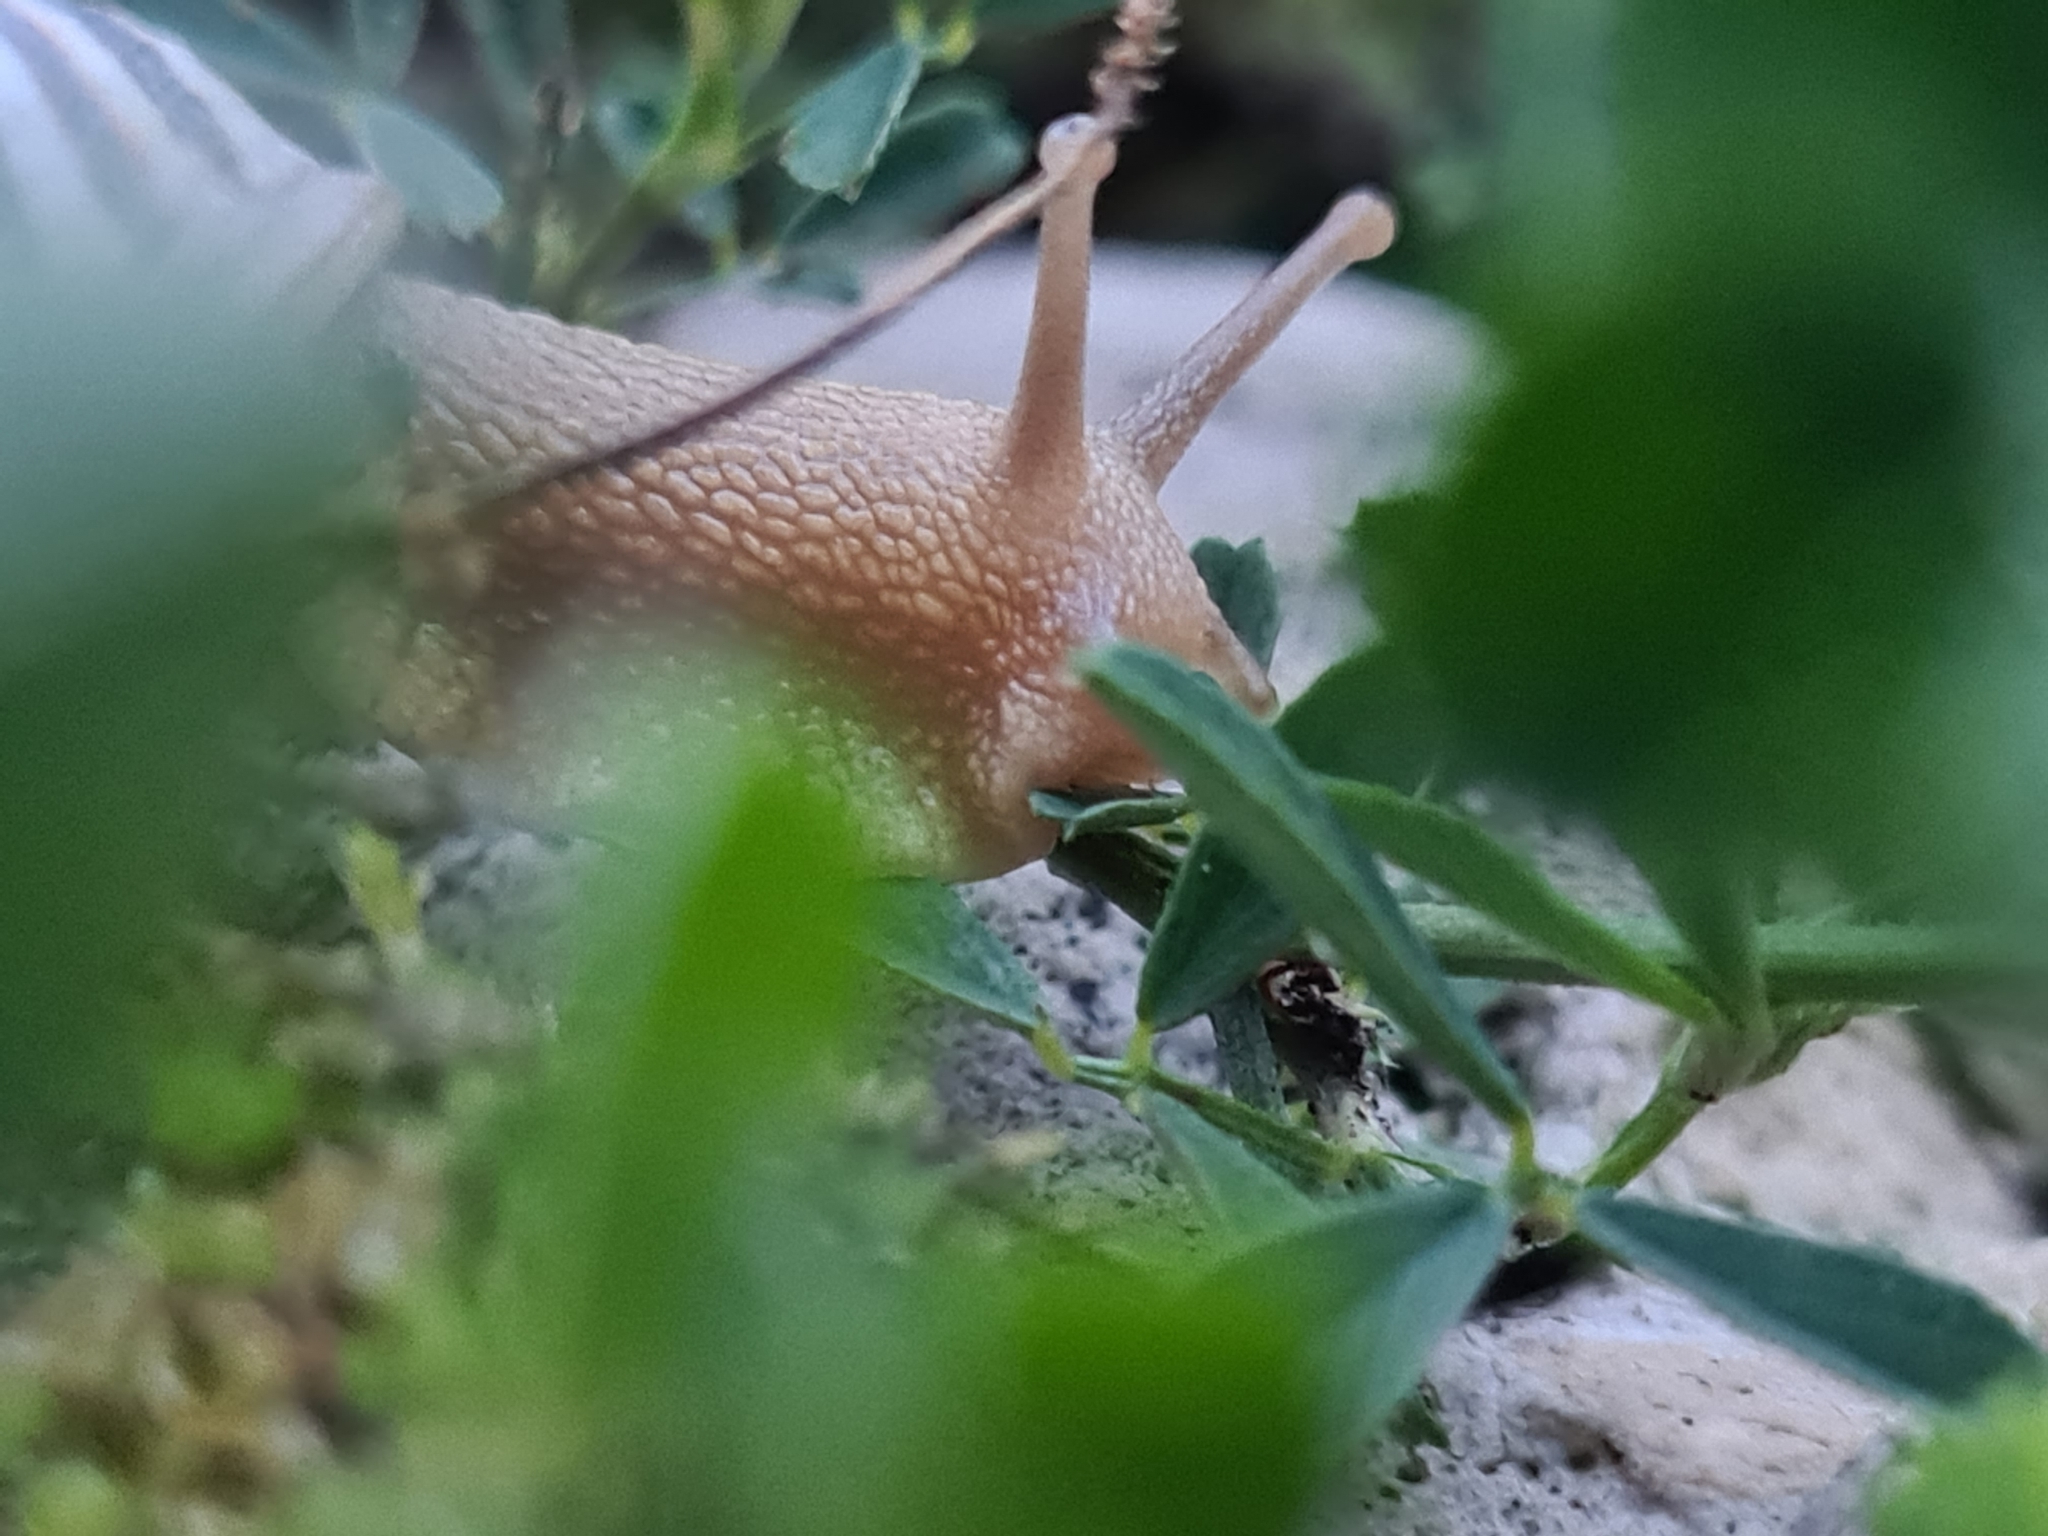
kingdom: Animalia
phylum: Mollusca
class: Gastropoda
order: Stylommatophora
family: Helicidae
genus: Caucasotachea
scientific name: Caucasotachea vindobonensis
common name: European helicid land snail
